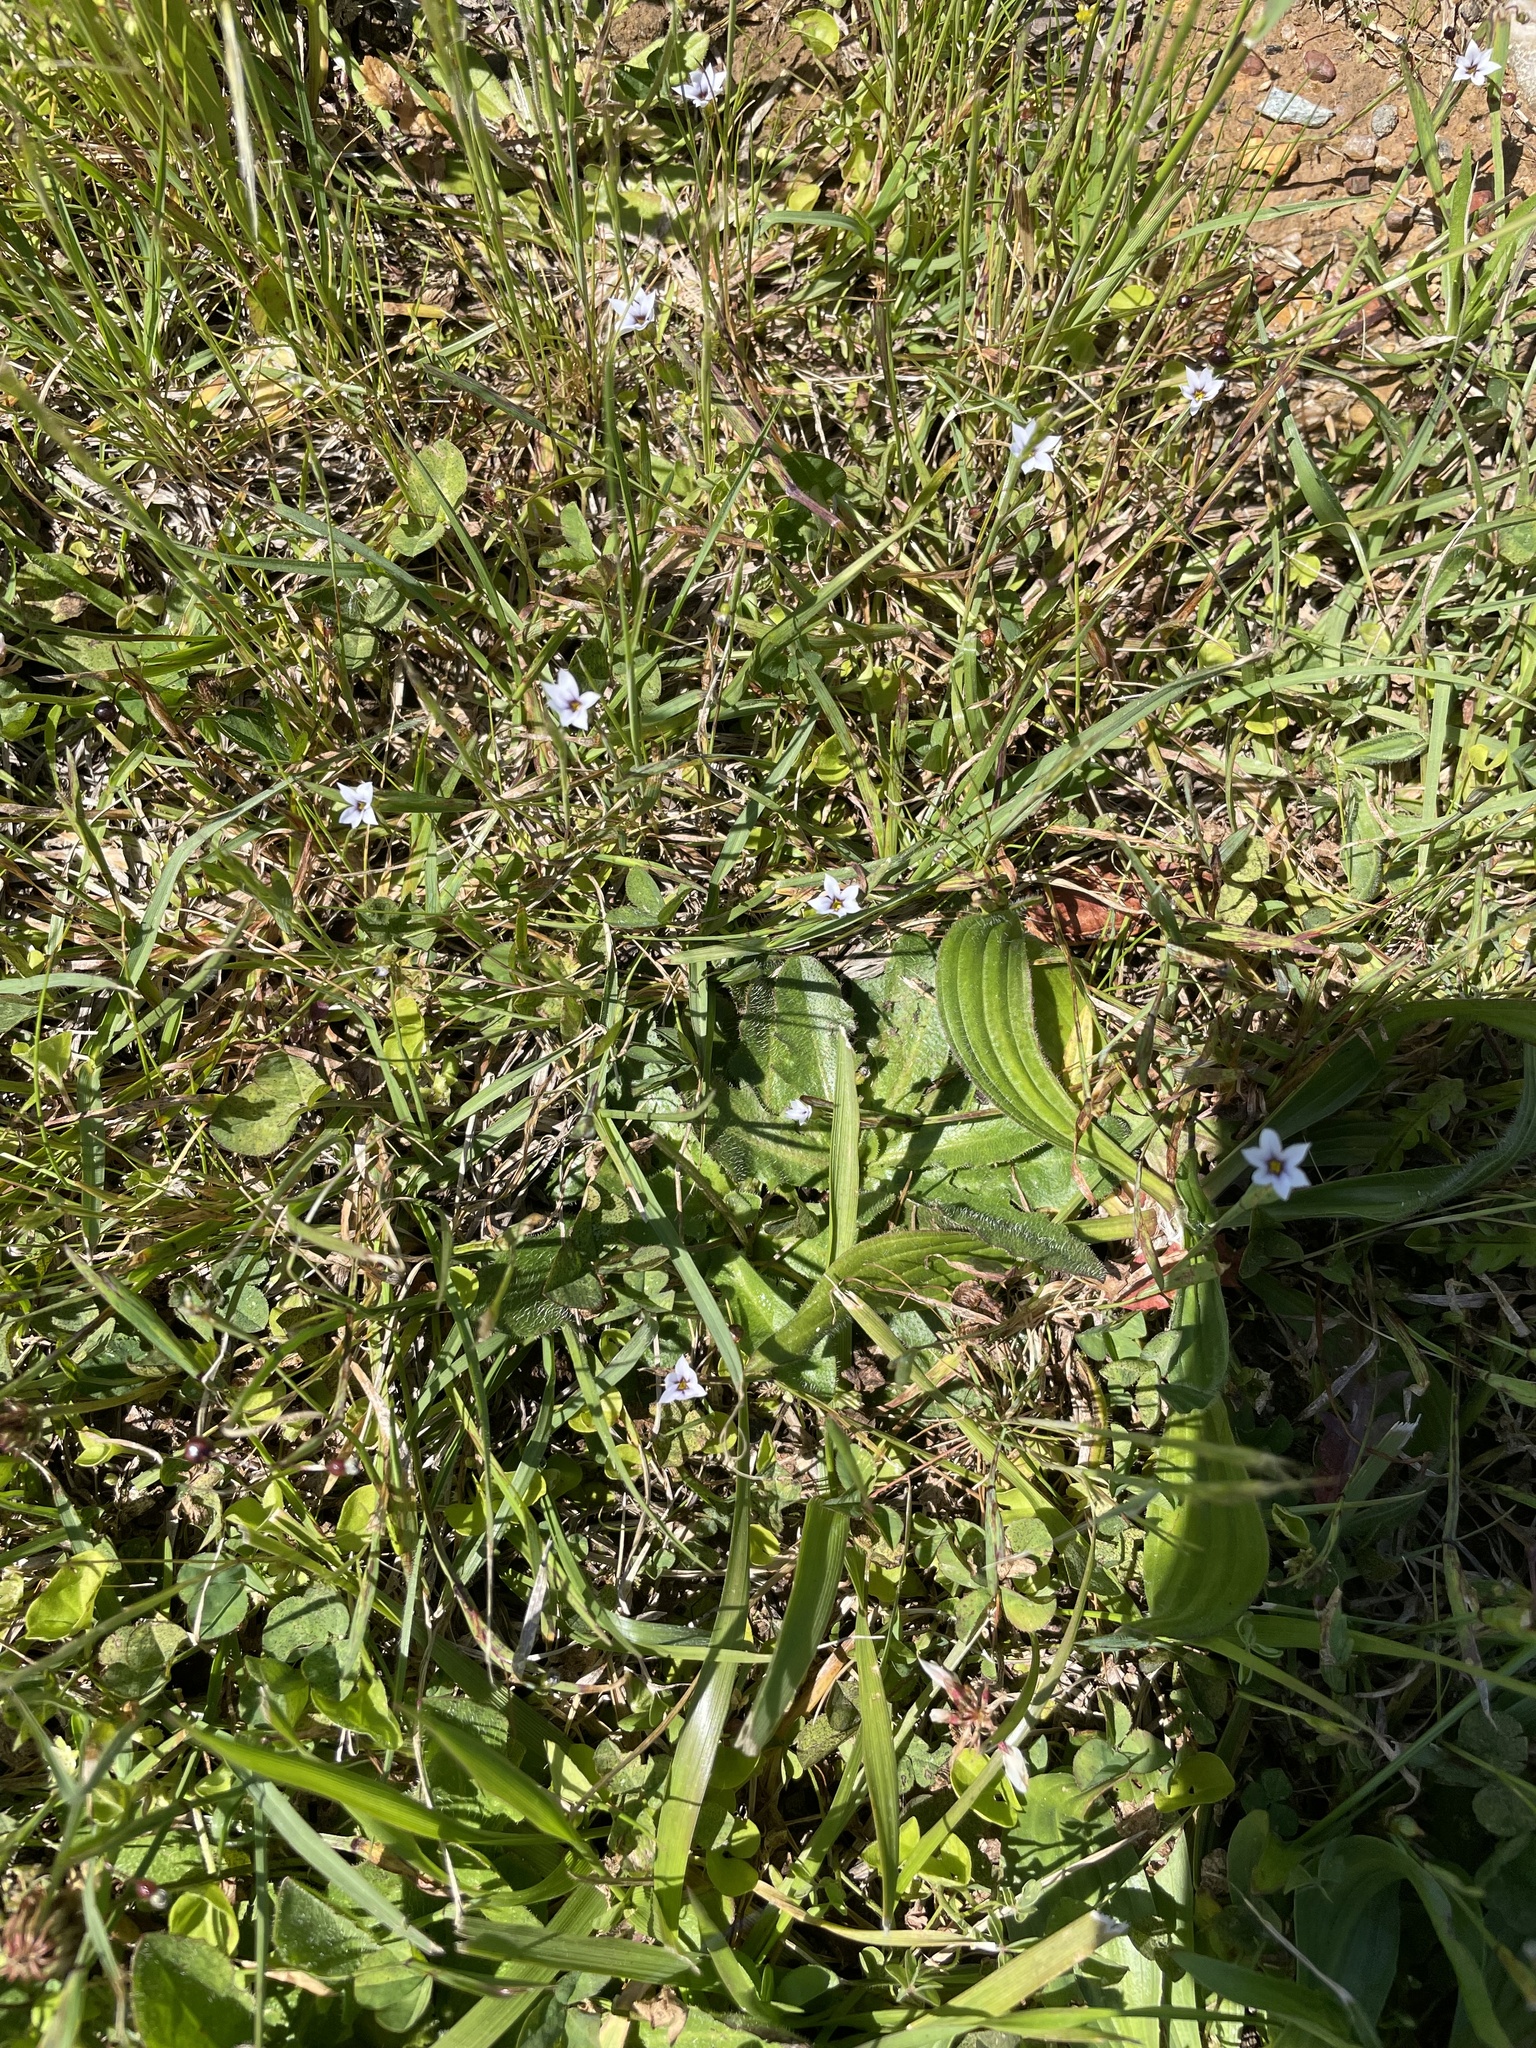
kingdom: Plantae
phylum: Tracheophyta
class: Liliopsida
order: Asparagales
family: Iridaceae
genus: Sisyrinchium
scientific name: Sisyrinchium micranthum
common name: Bermuda pigroot
